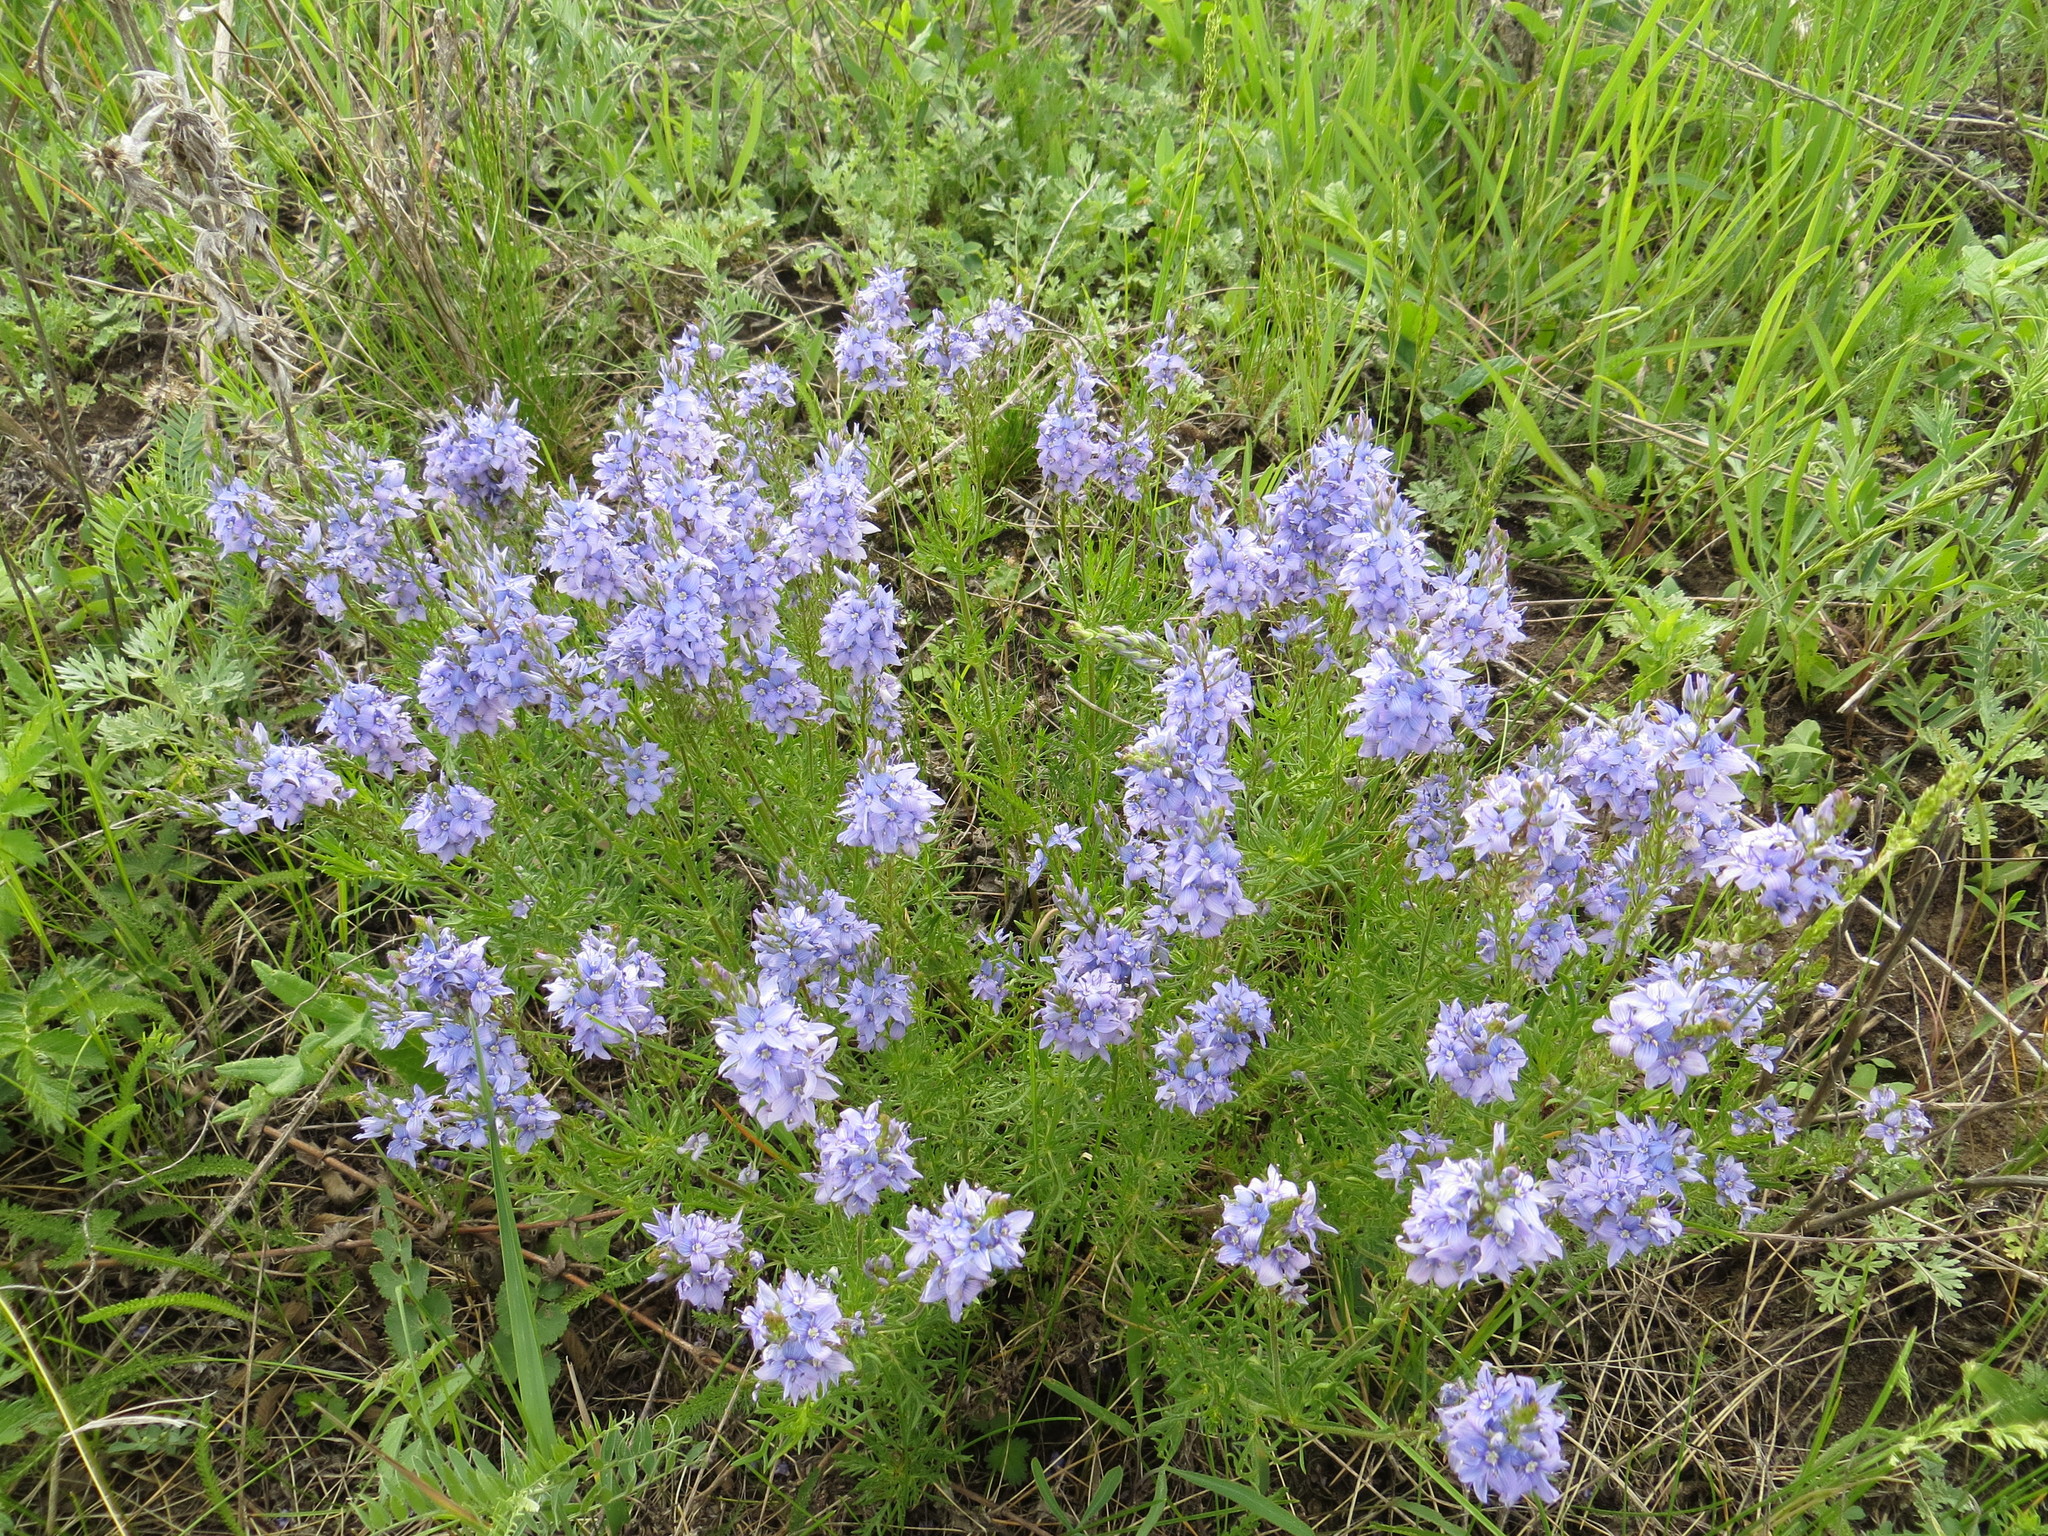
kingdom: Plantae
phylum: Tracheophyta
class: Magnoliopsida
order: Lamiales
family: Plantaginaceae
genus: Veronica
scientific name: Veronica austriaca
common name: Large speedwell
